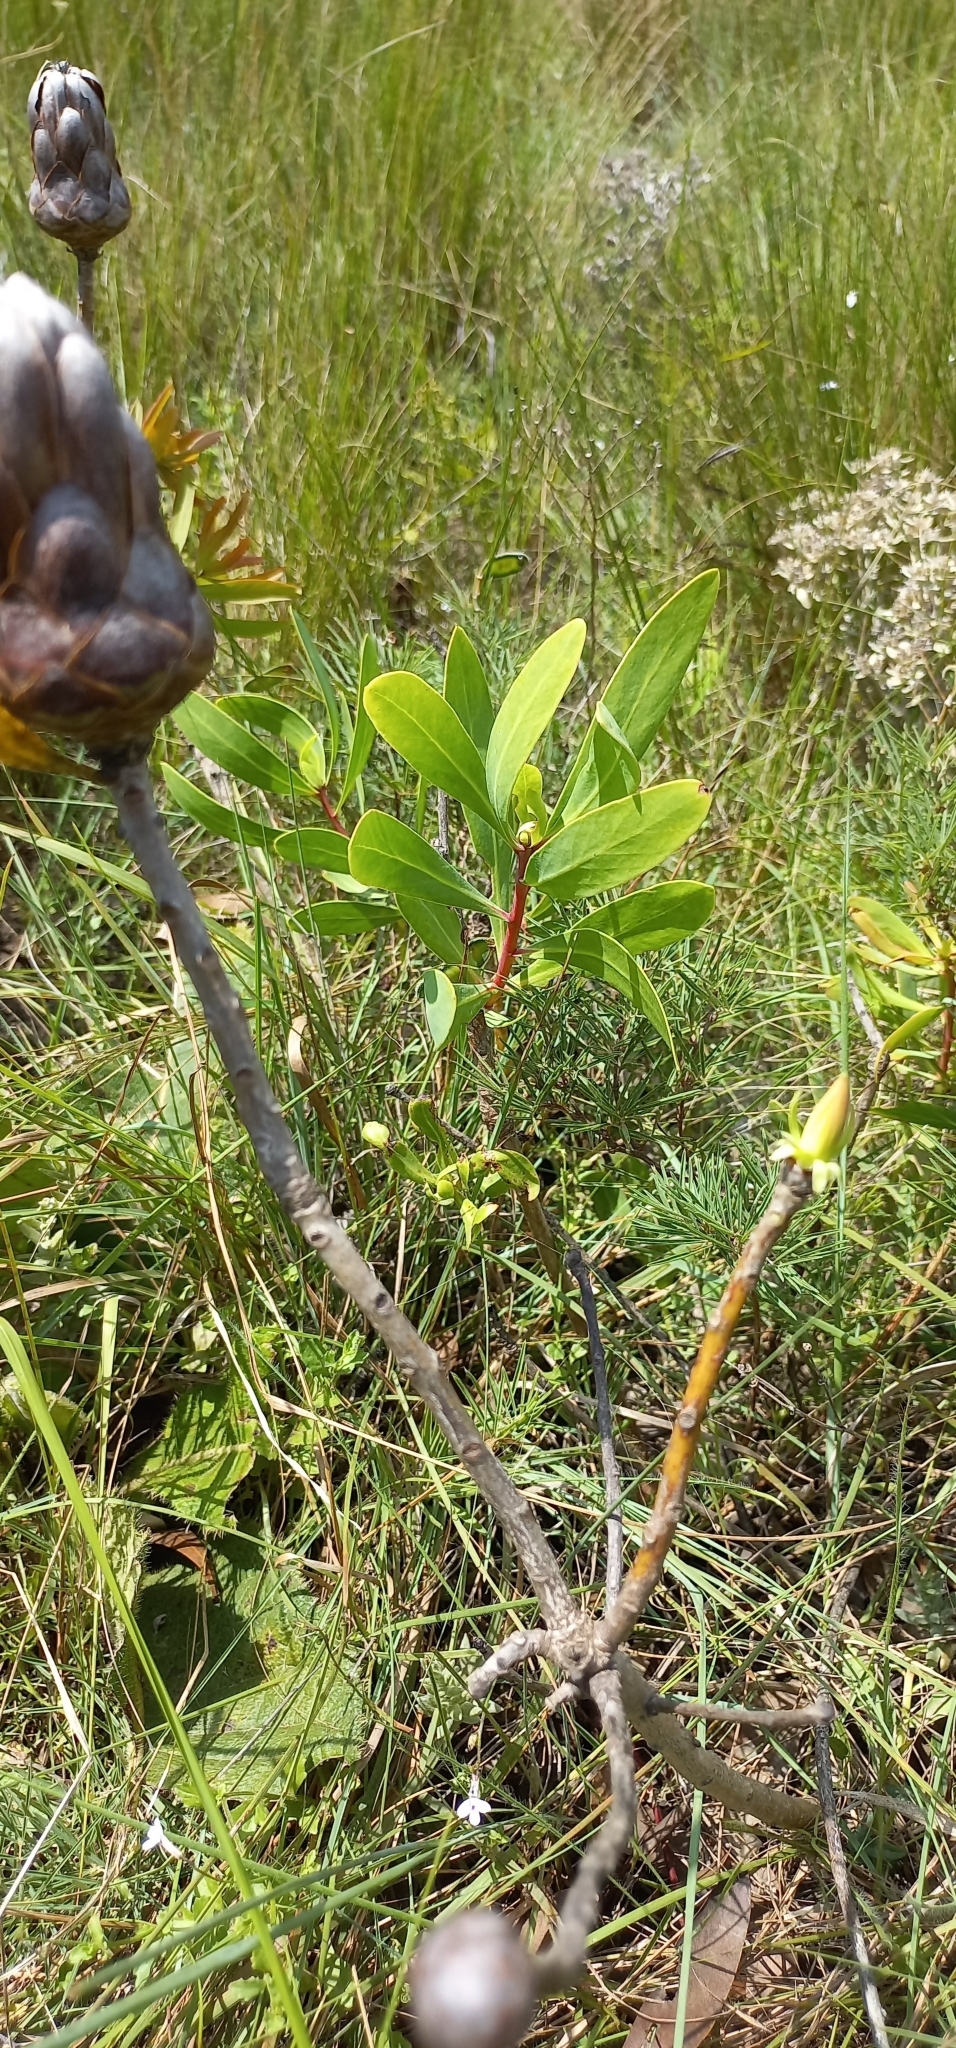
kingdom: Plantae
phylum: Tracheophyta
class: Magnoliopsida
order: Proteales
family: Proteaceae
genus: Protea
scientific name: Protea caffra
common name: Common sugarbush
